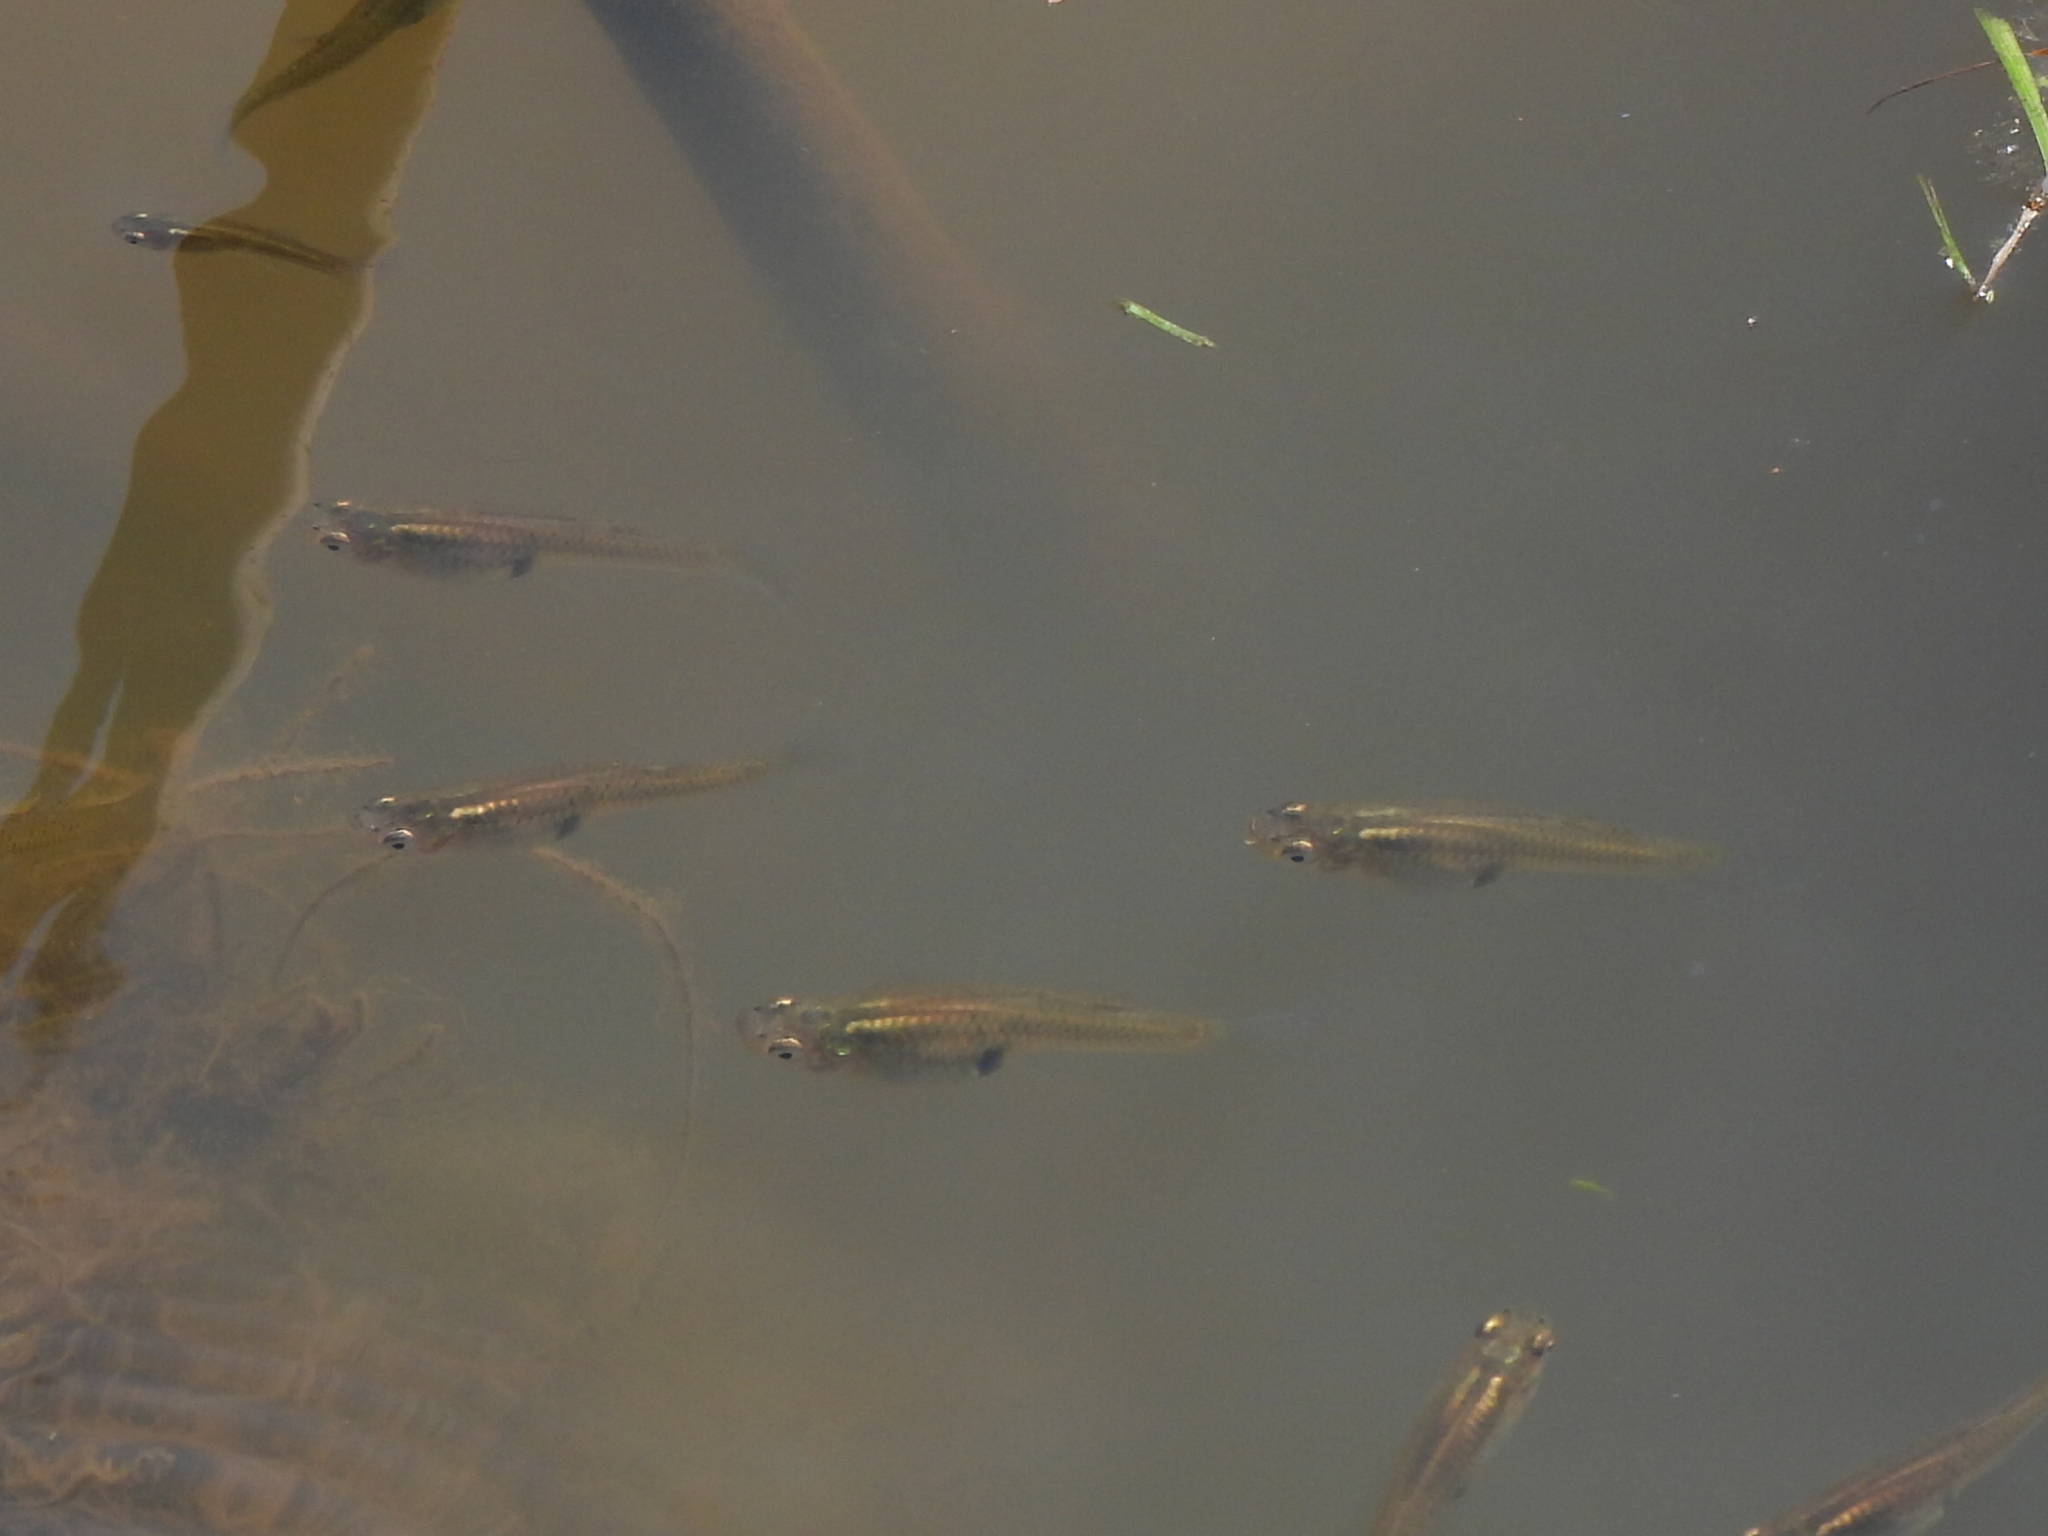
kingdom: Animalia
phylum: Chordata
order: Cyprinodontiformes
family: Poeciliidae
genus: Gambusia
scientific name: Gambusia holbrooki
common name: Eastern mosquitofish
